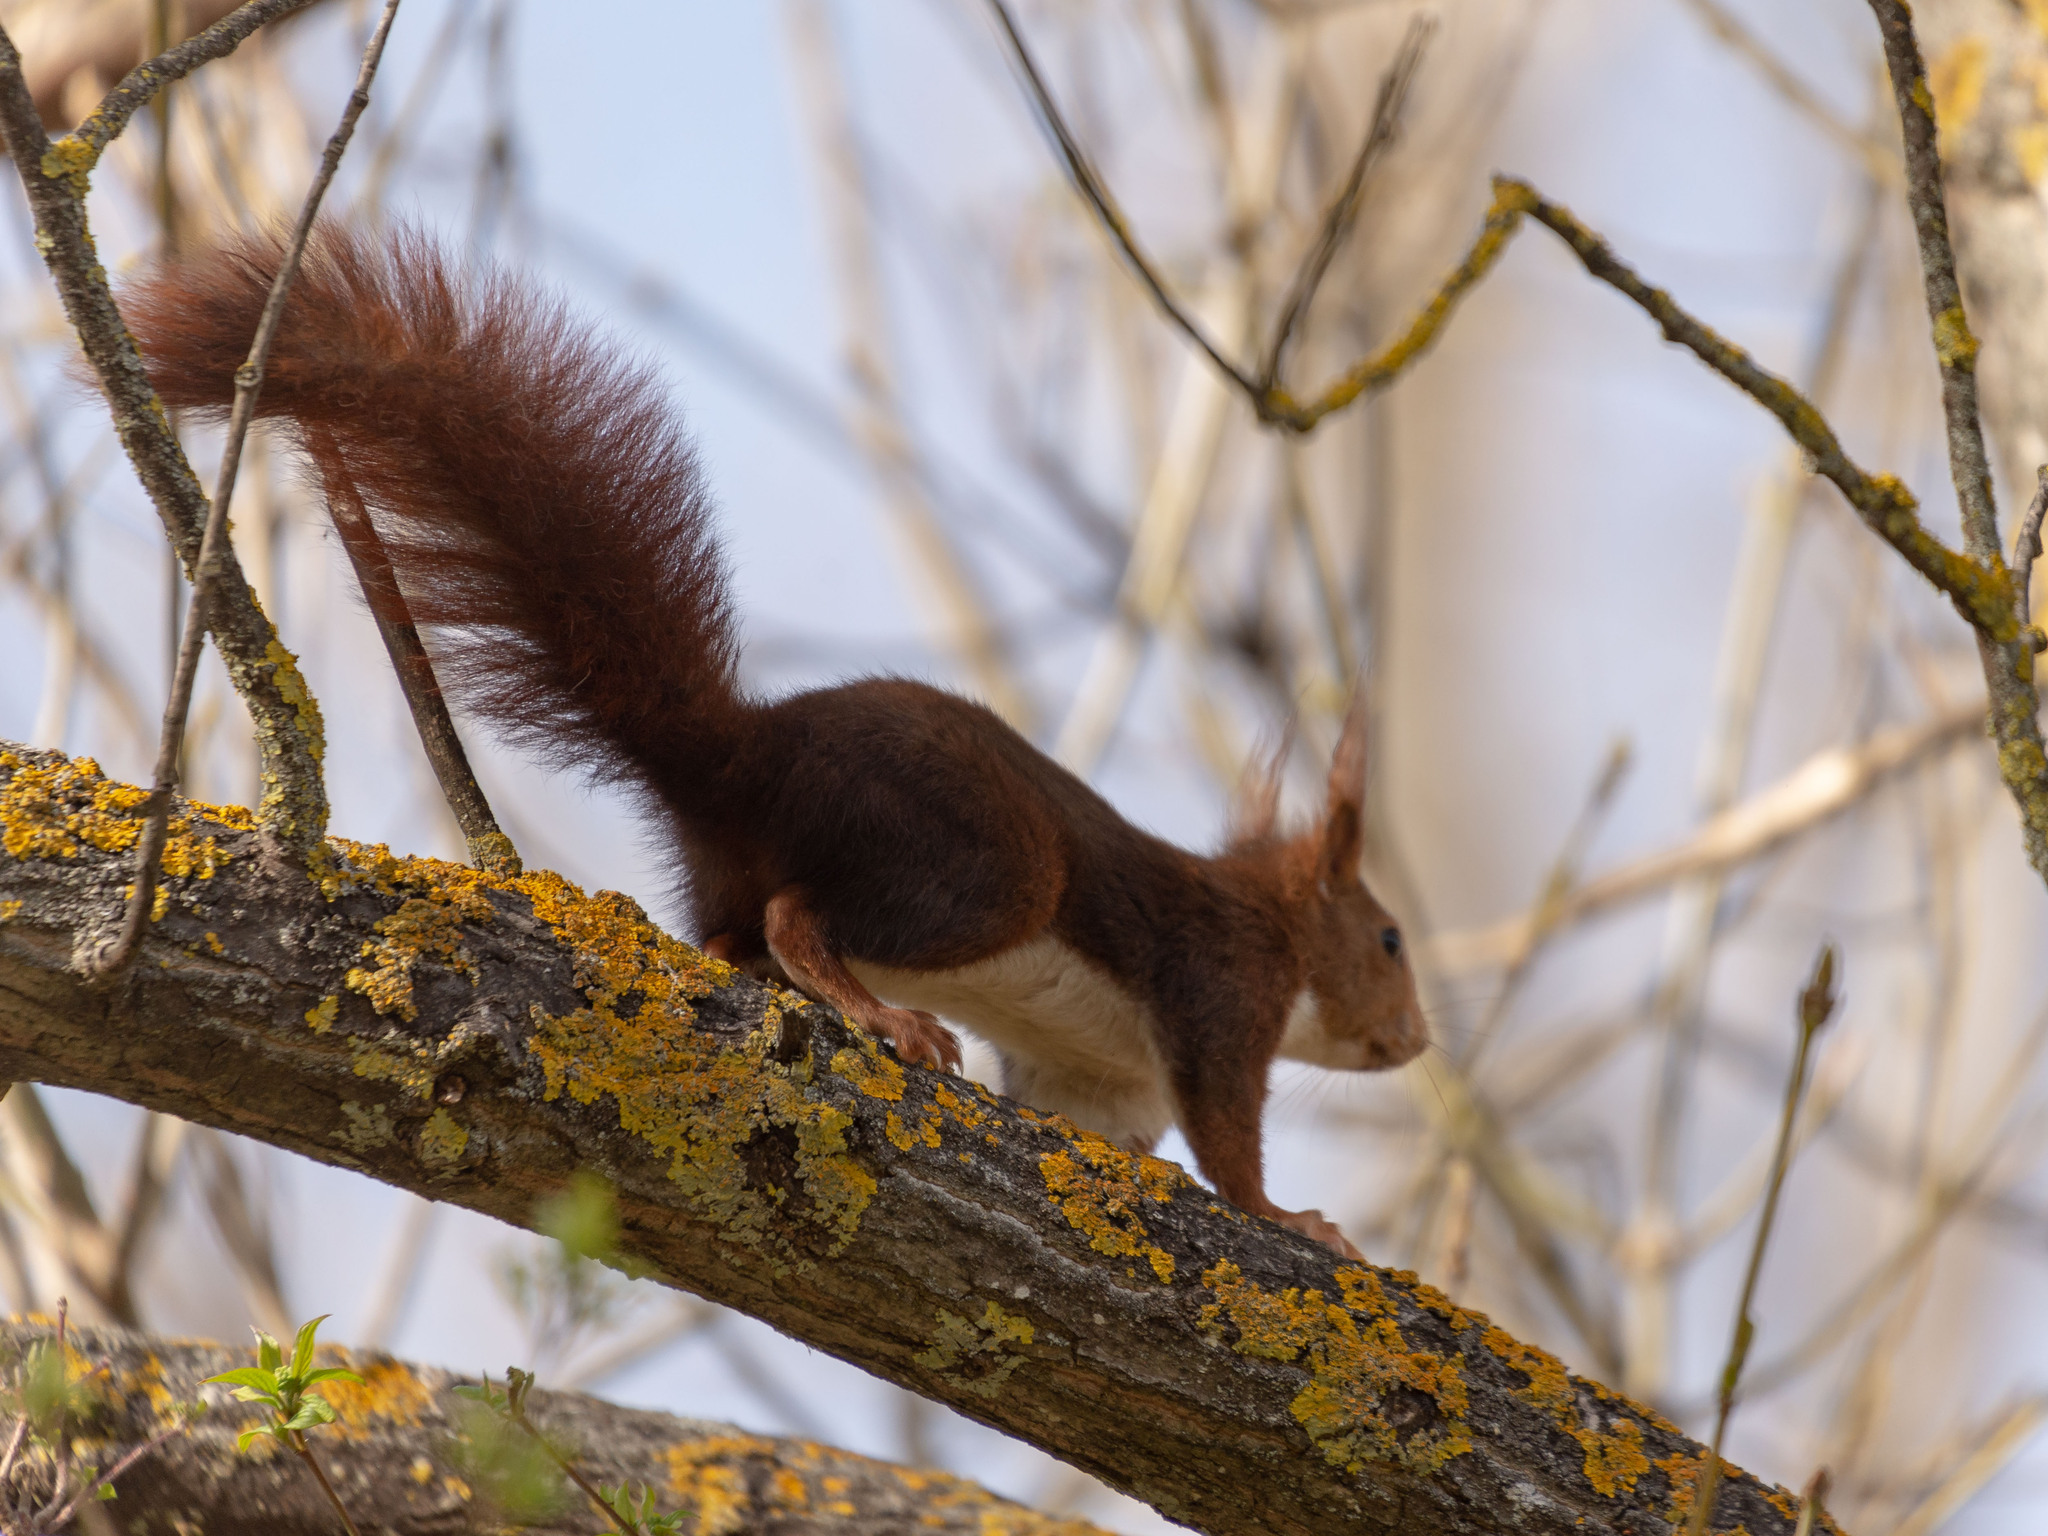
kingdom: Animalia
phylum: Chordata
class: Mammalia
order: Rodentia
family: Sciuridae
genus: Sciurus
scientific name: Sciurus vulgaris
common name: Eurasian red squirrel
